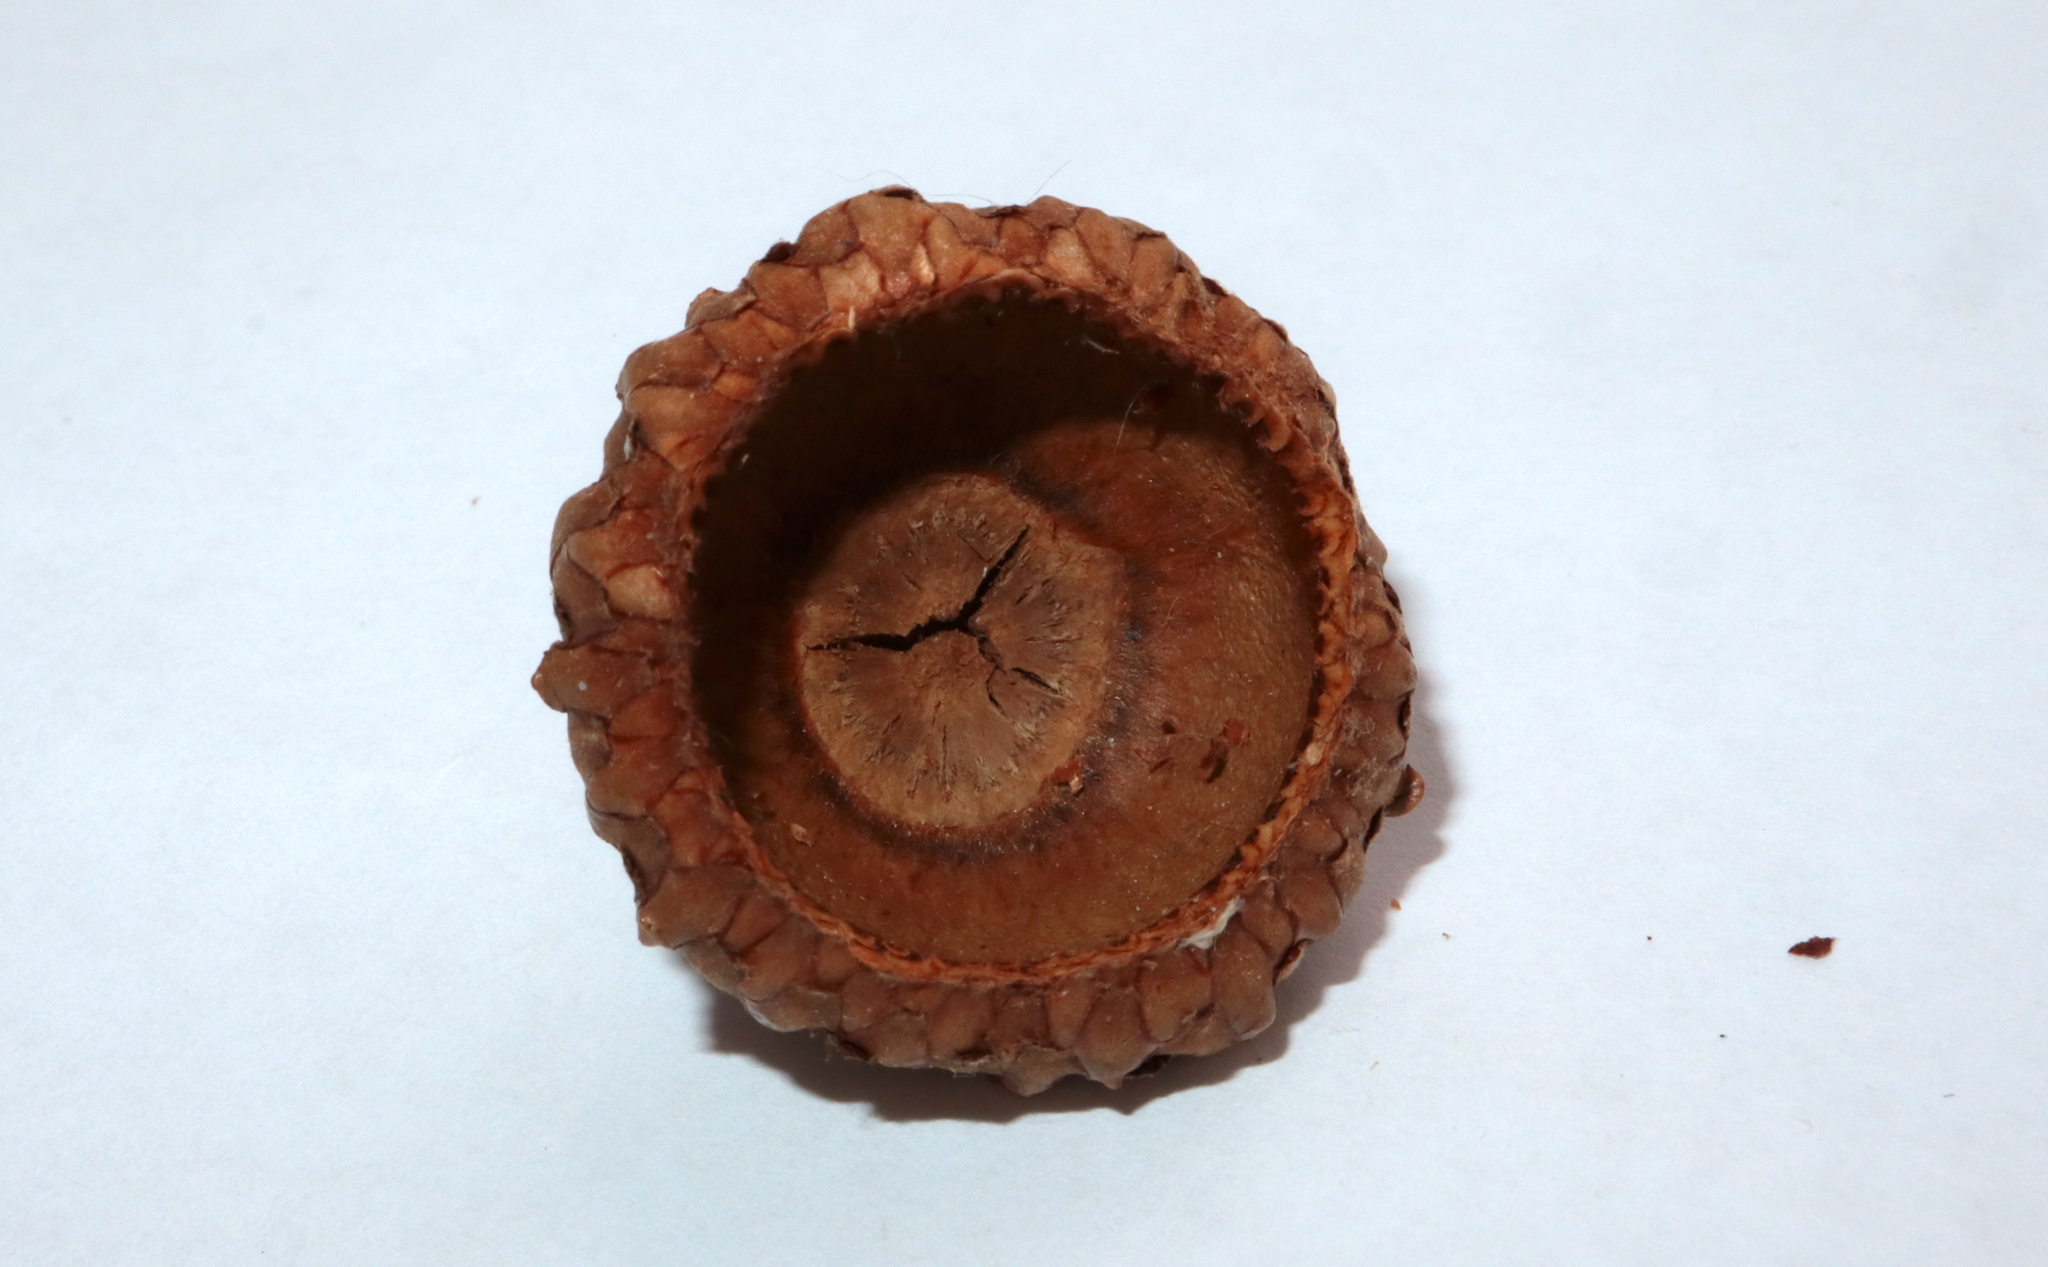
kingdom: Plantae
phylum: Tracheophyta
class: Magnoliopsida
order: Fagales
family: Fagaceae
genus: Quercus
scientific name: Quercus coccinea
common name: Scarlet oak
